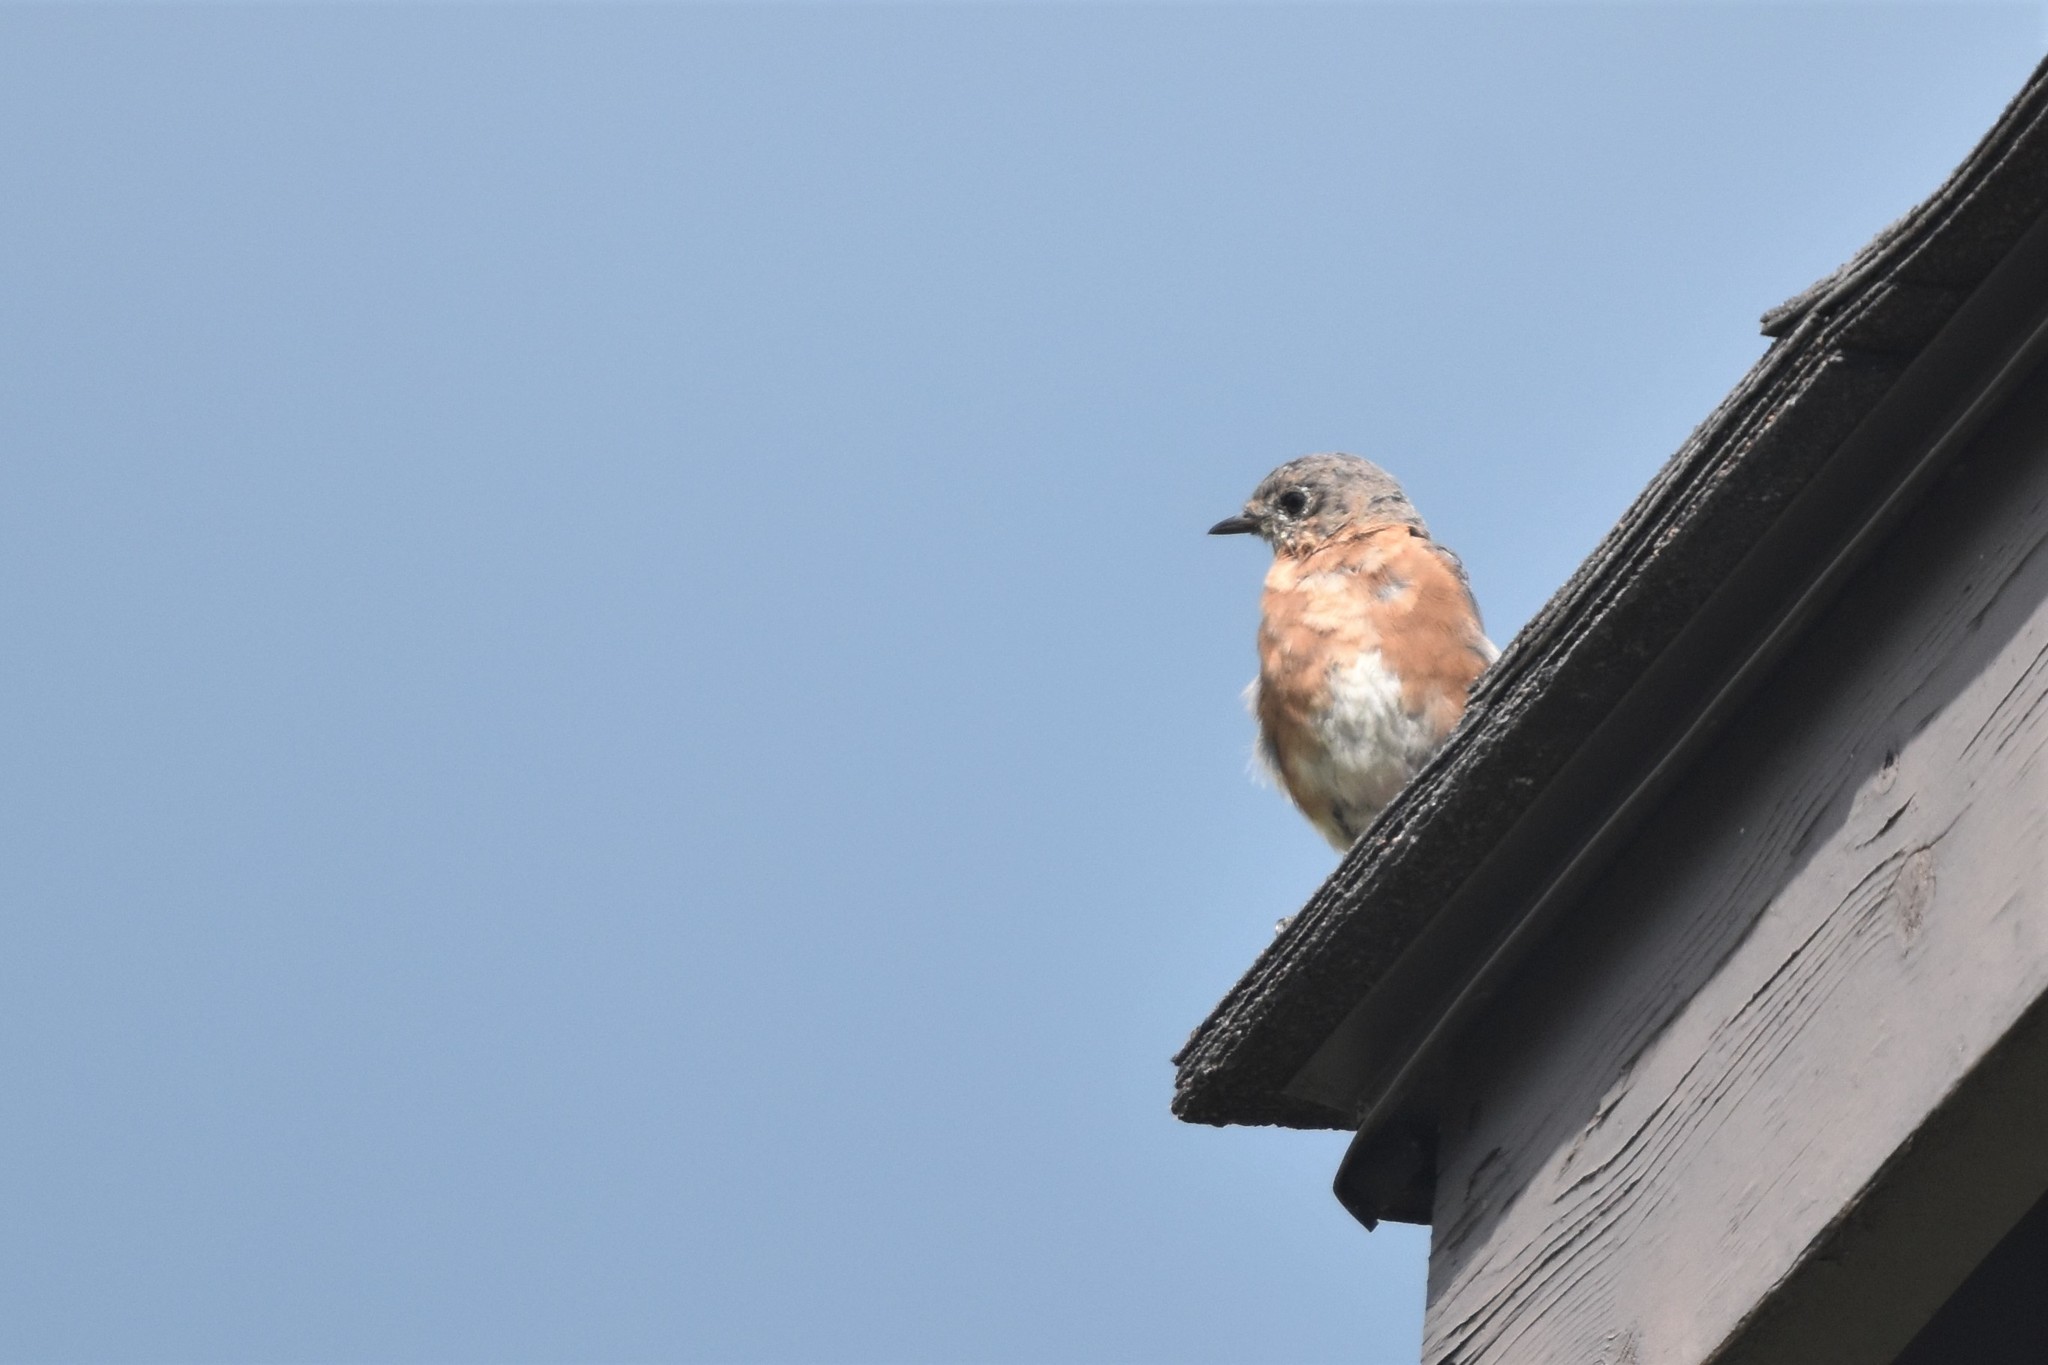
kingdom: Animalia
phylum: Chordata
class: Aves
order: Passeriformes
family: Turdidae
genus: Sialia
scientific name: Sialia sialis
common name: Eastern bluebird
